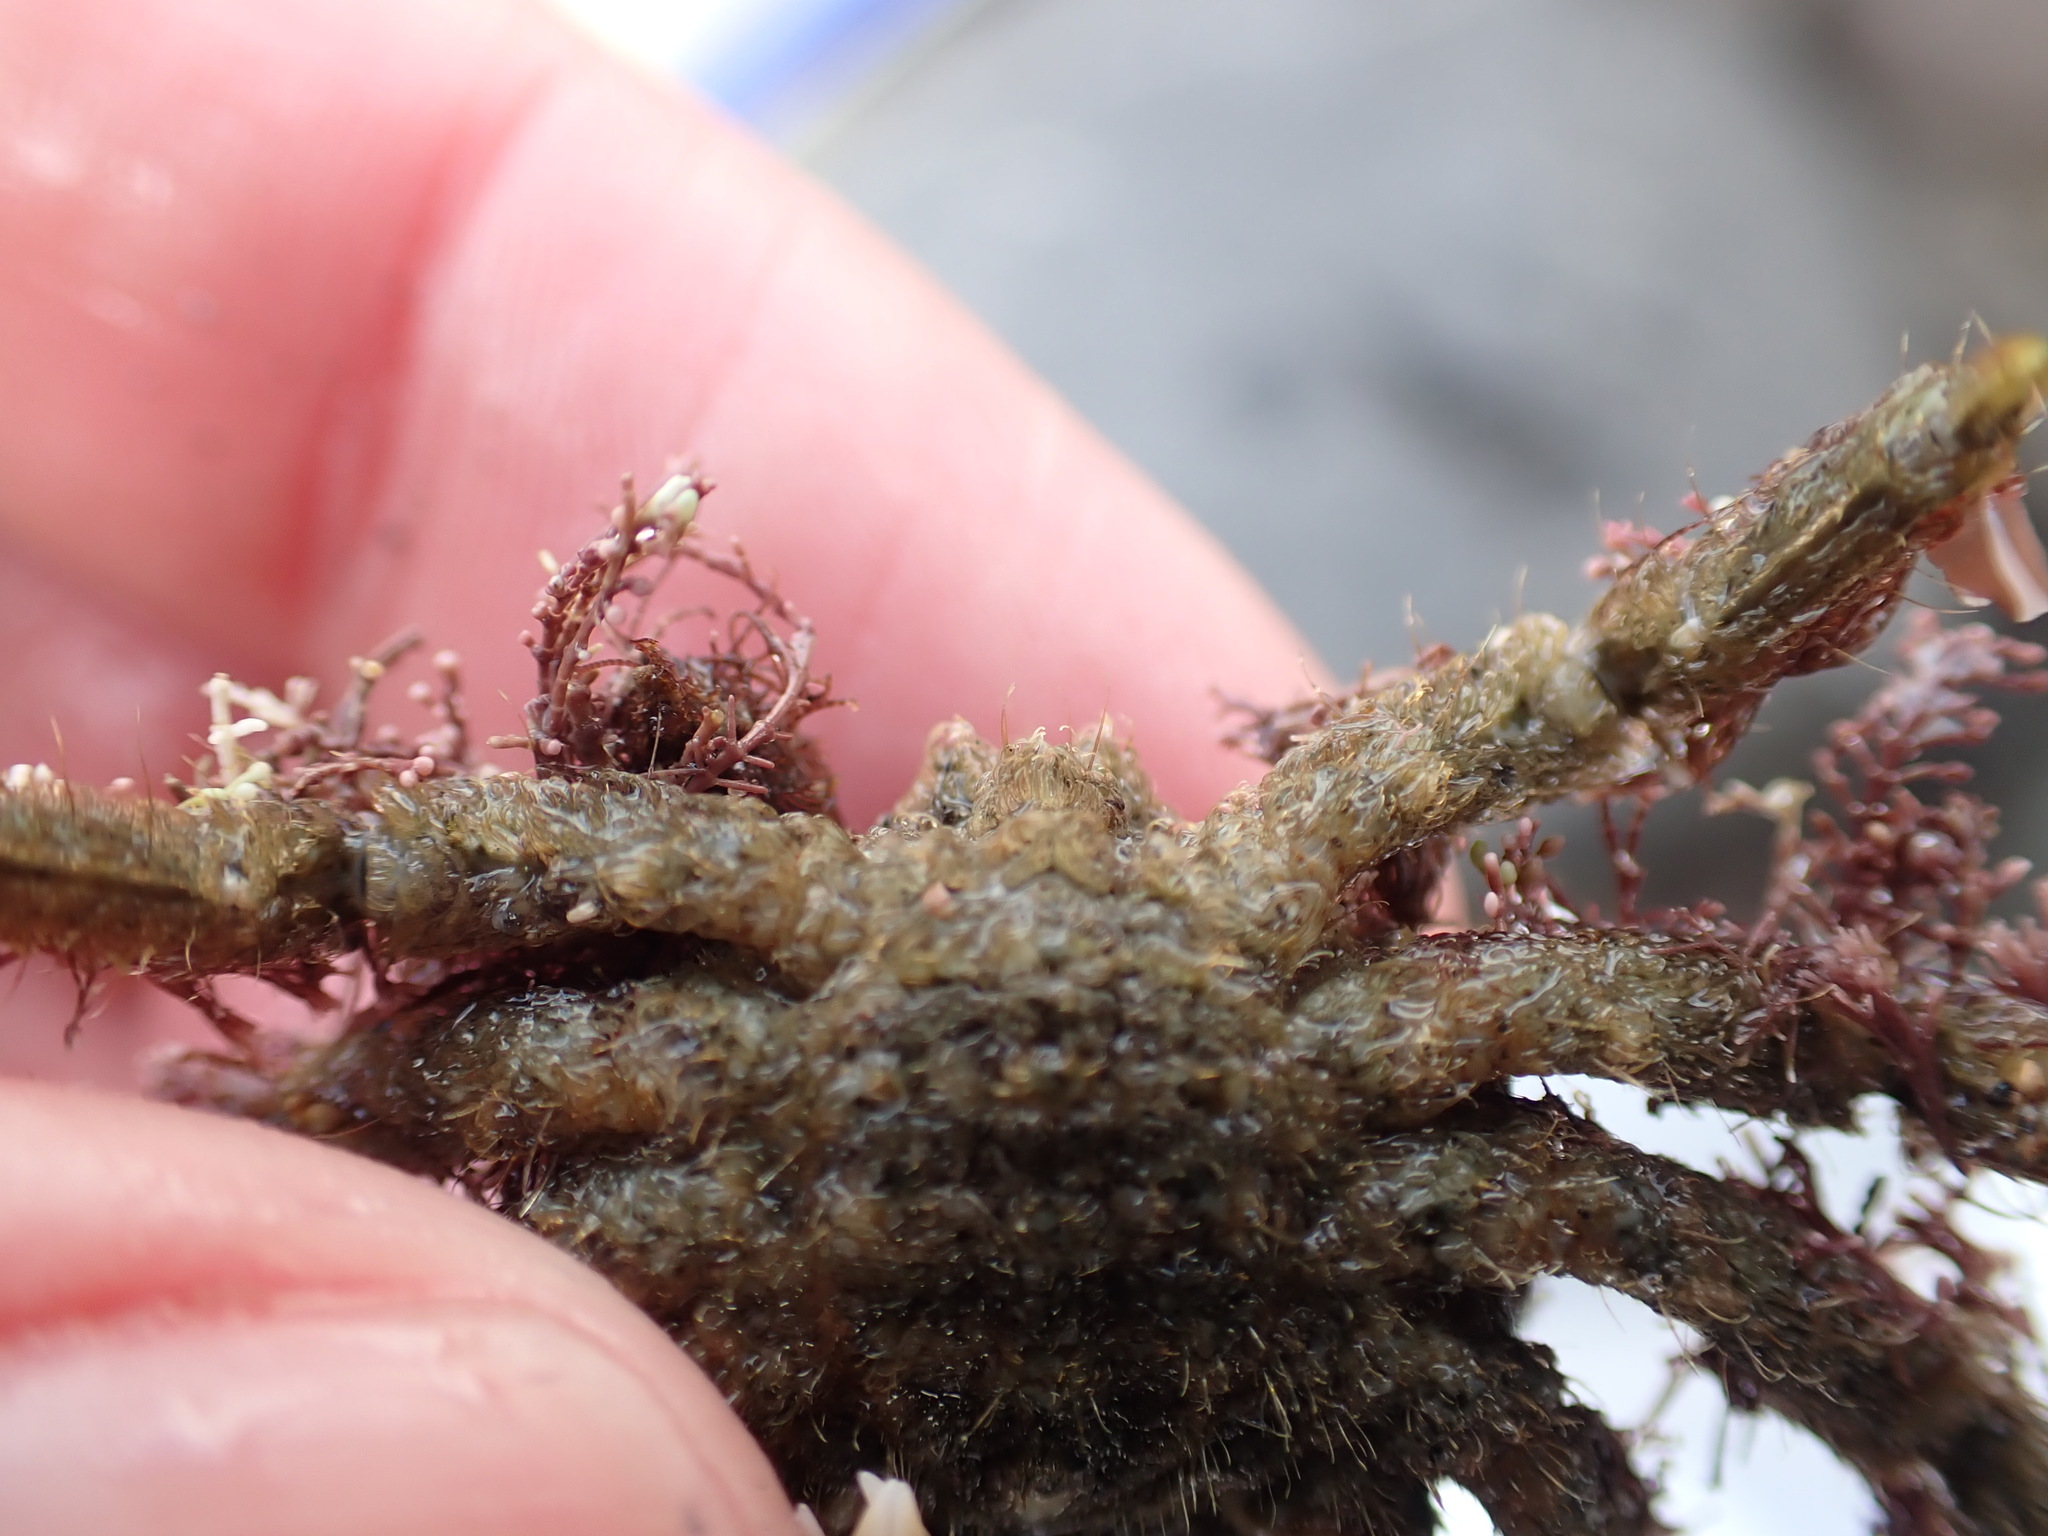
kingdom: Animalia
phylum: Arthropoda
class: Malacostraca
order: Decapoda
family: Majidae
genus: Notomithrax
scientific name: Notomithrax peronii
